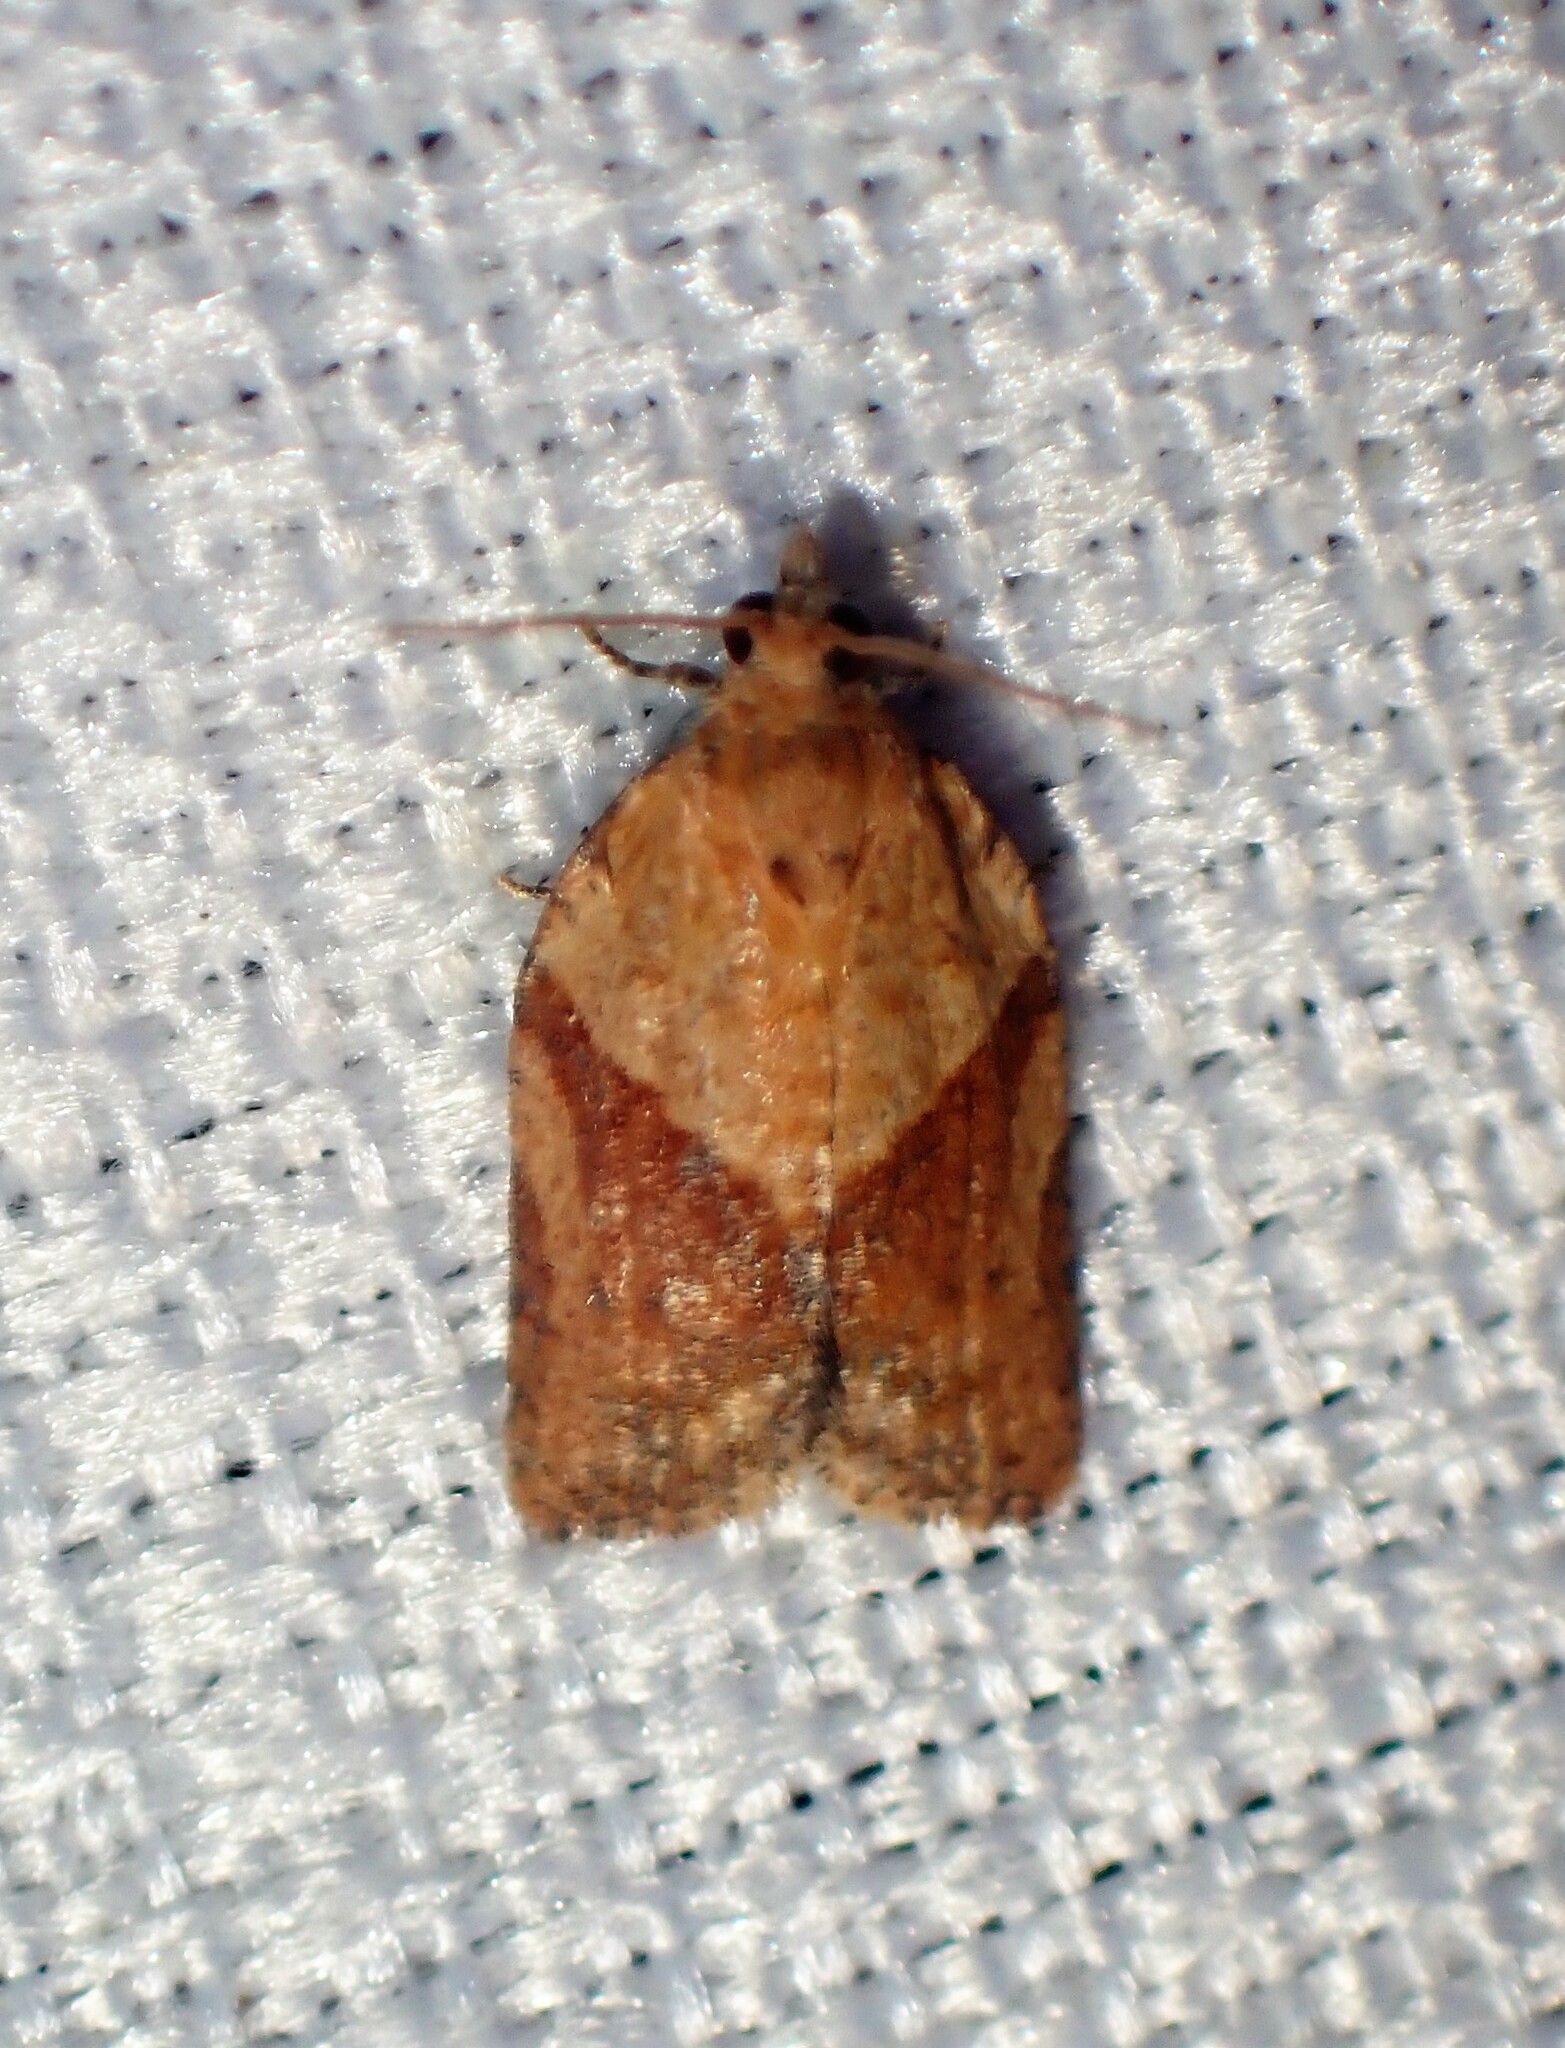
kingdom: Animalia
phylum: Arthropoda
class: Insecta
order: Lepidoptera
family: Tortricidae
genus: Epiphyas
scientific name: Epiphyas postvittana
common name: Light brown apple moth
